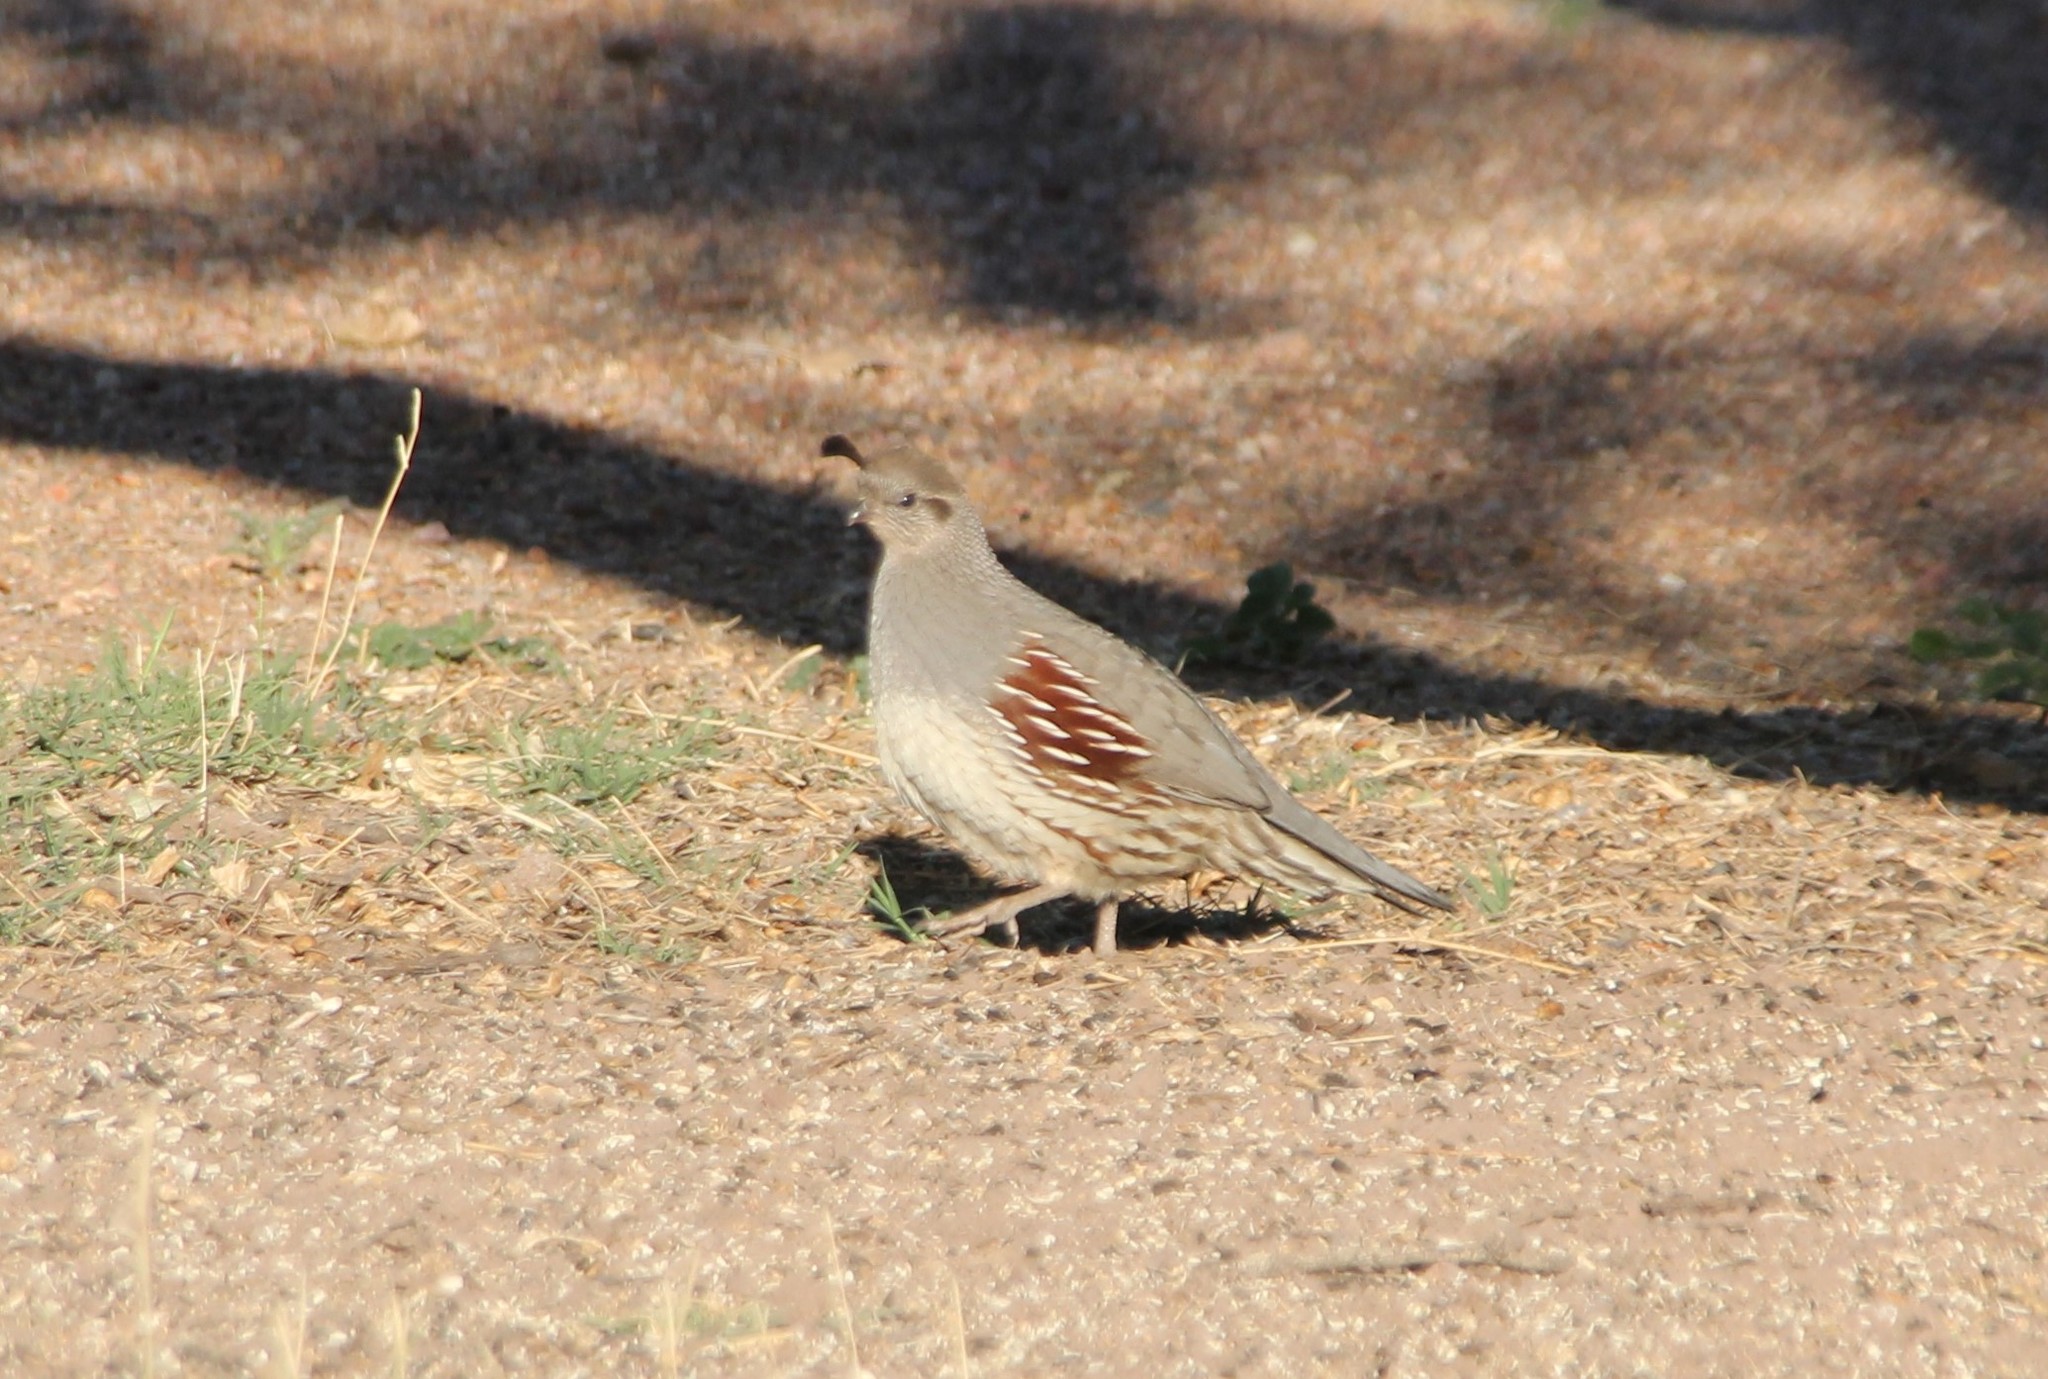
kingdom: Animalia
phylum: Chordata
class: Aves
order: Galliformes
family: Odontophoridae
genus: Callipepla
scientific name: Callipepla gambelii
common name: Gambel's quail
